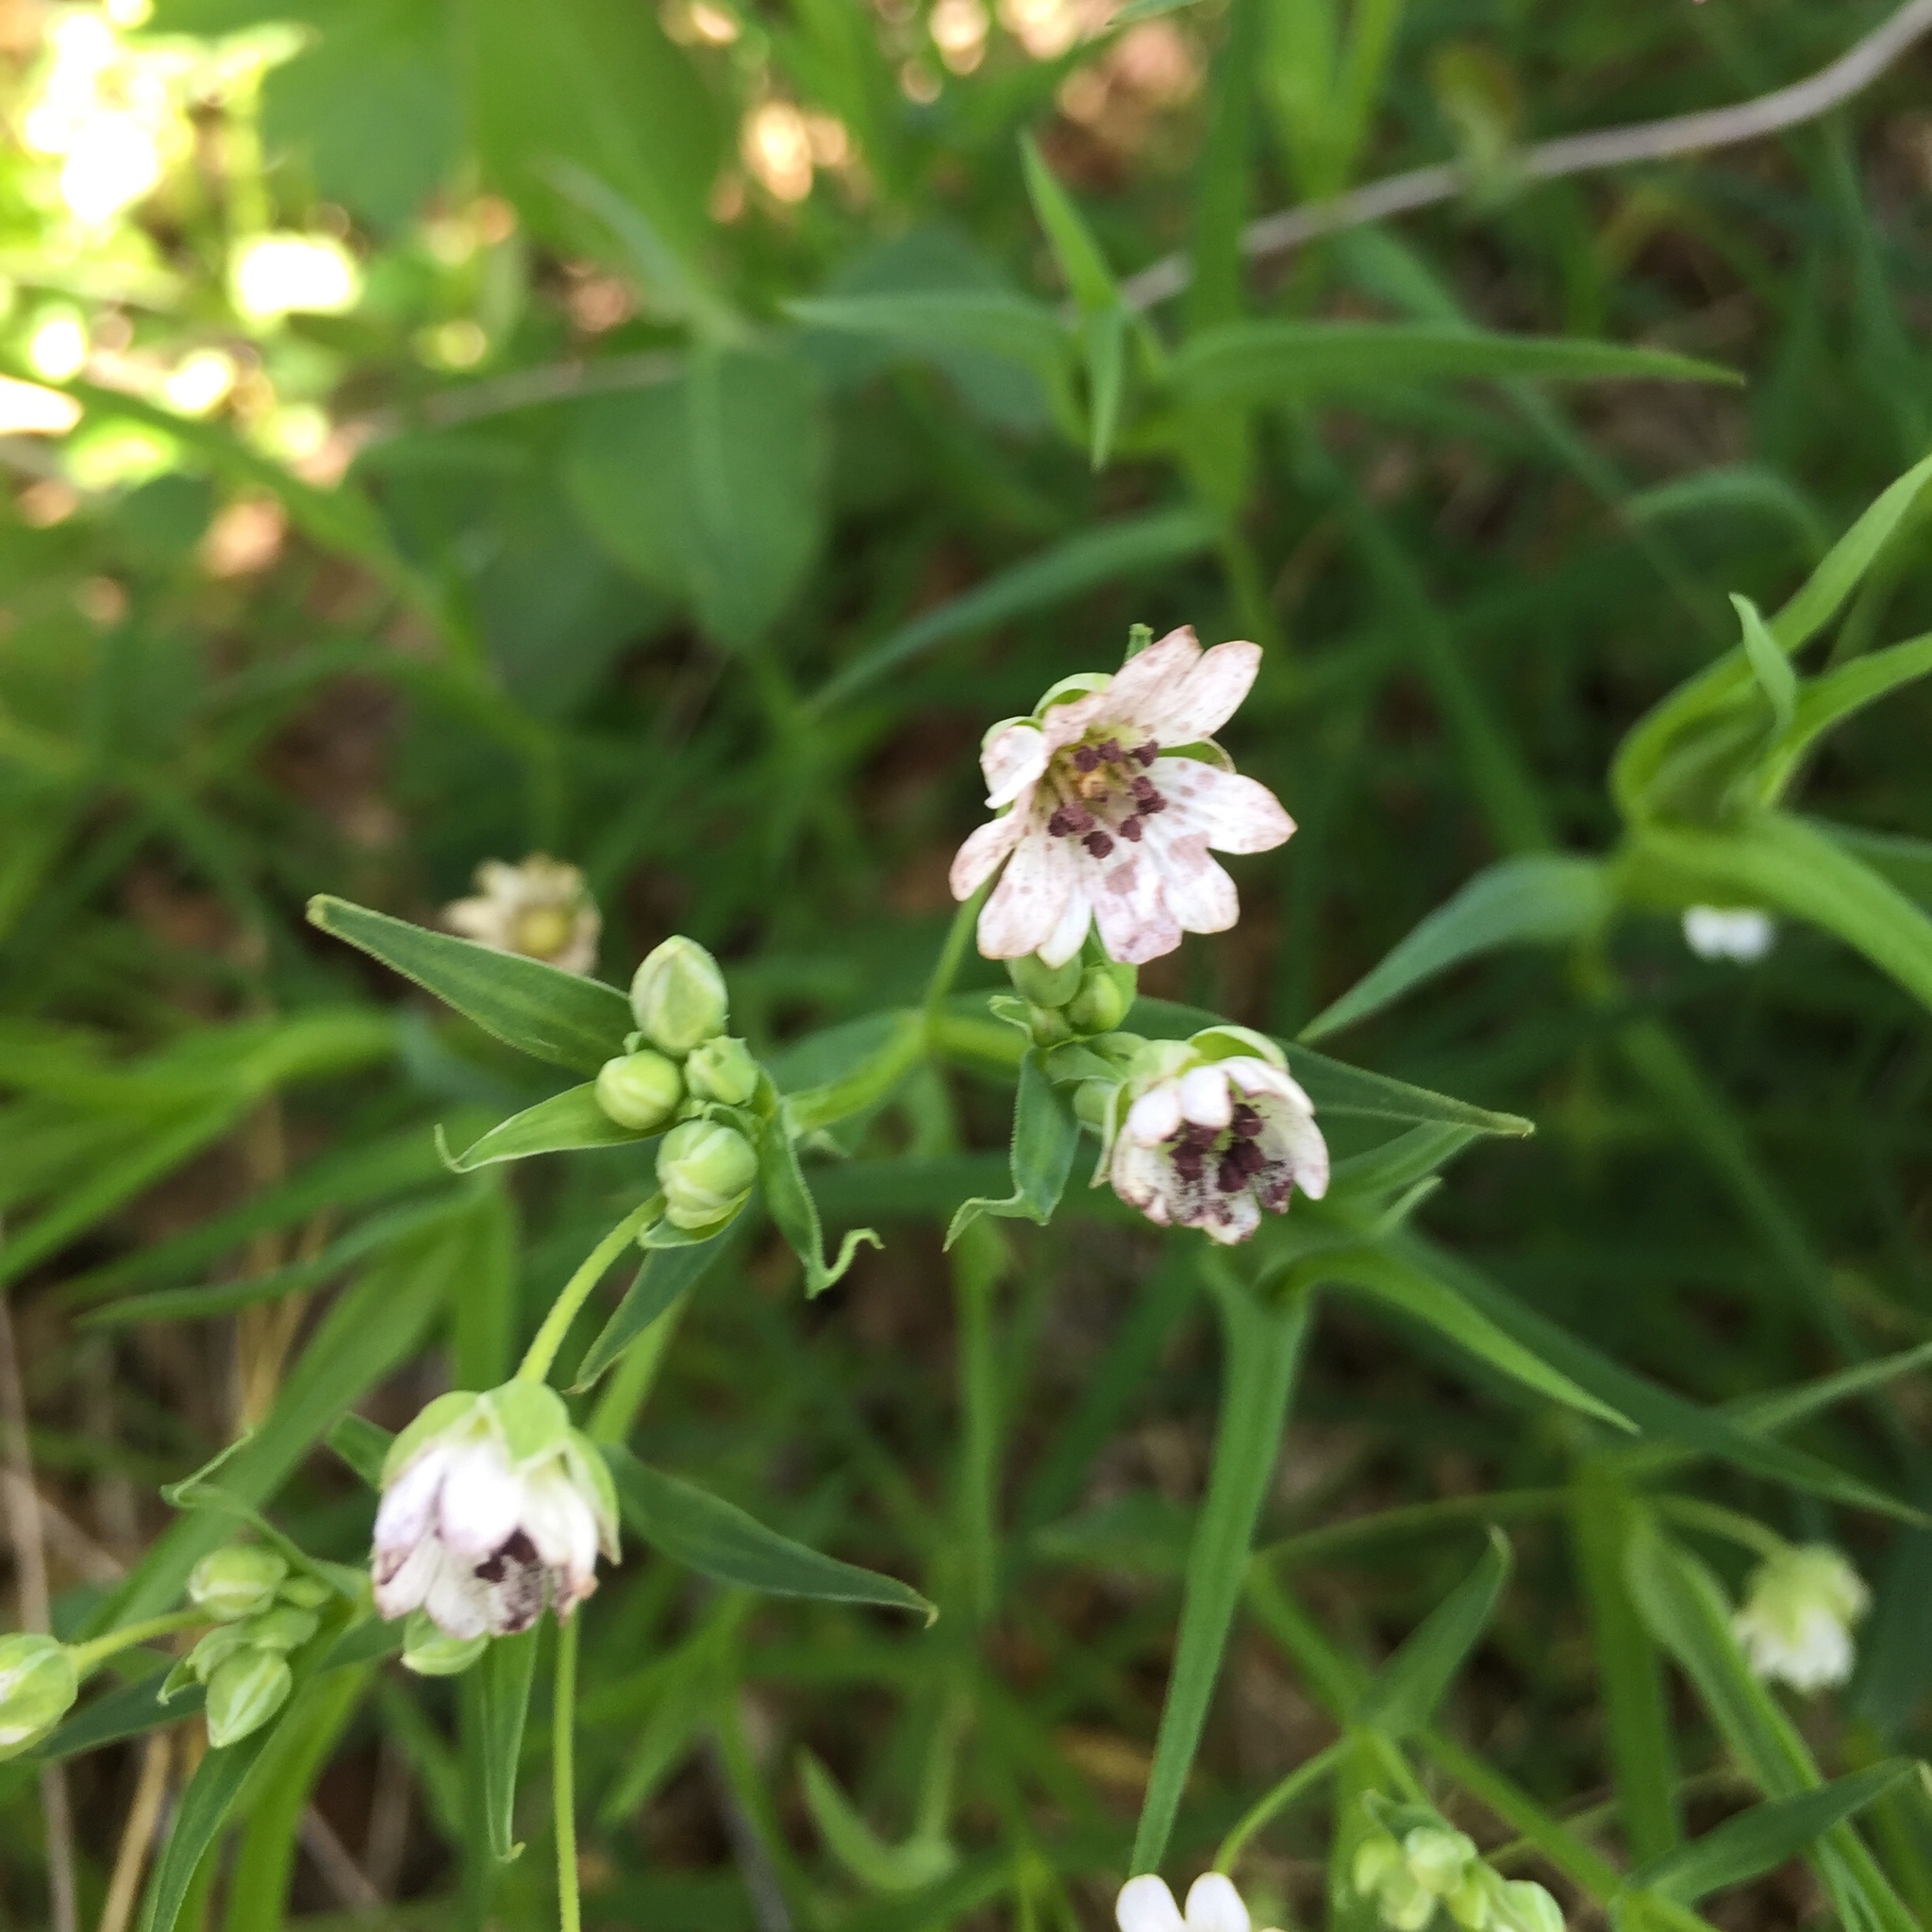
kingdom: Fungi
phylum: Basidiomycota
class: Microbotryomycetes
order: Microbotryales
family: Microbotryaceae
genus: Microbotryum
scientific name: Microbotryum stellariae
